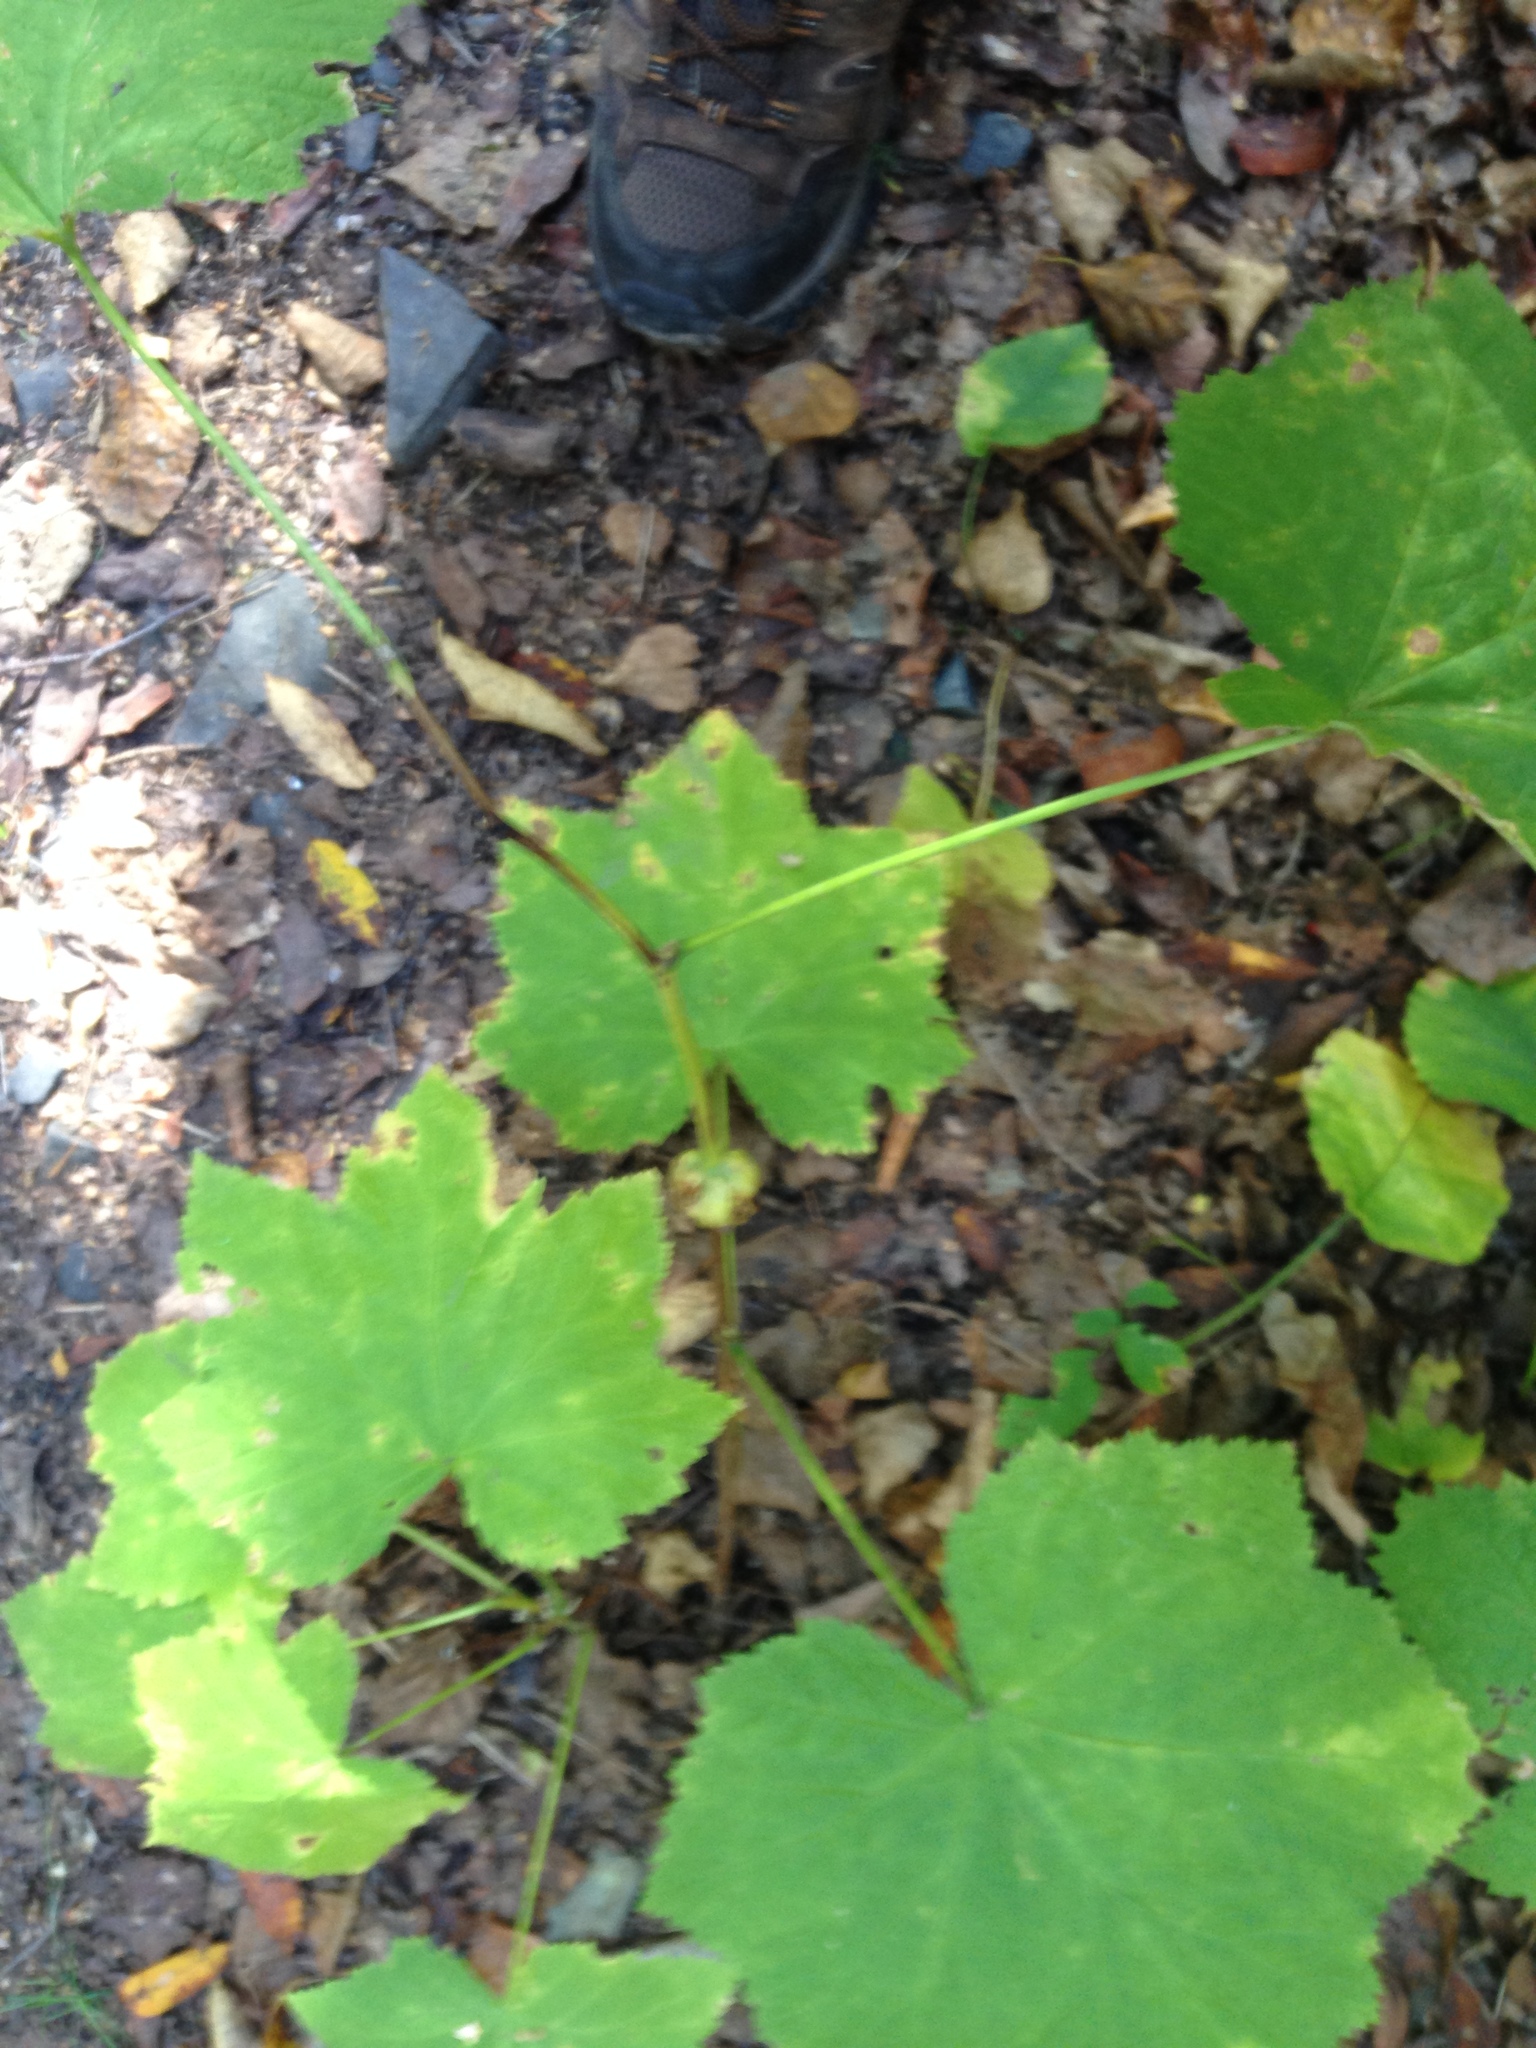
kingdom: Plantae
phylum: Tracheophyta
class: Magnoliopsida
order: Rosales
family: Rosaceae
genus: Rubus
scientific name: Rubus parviflorus
